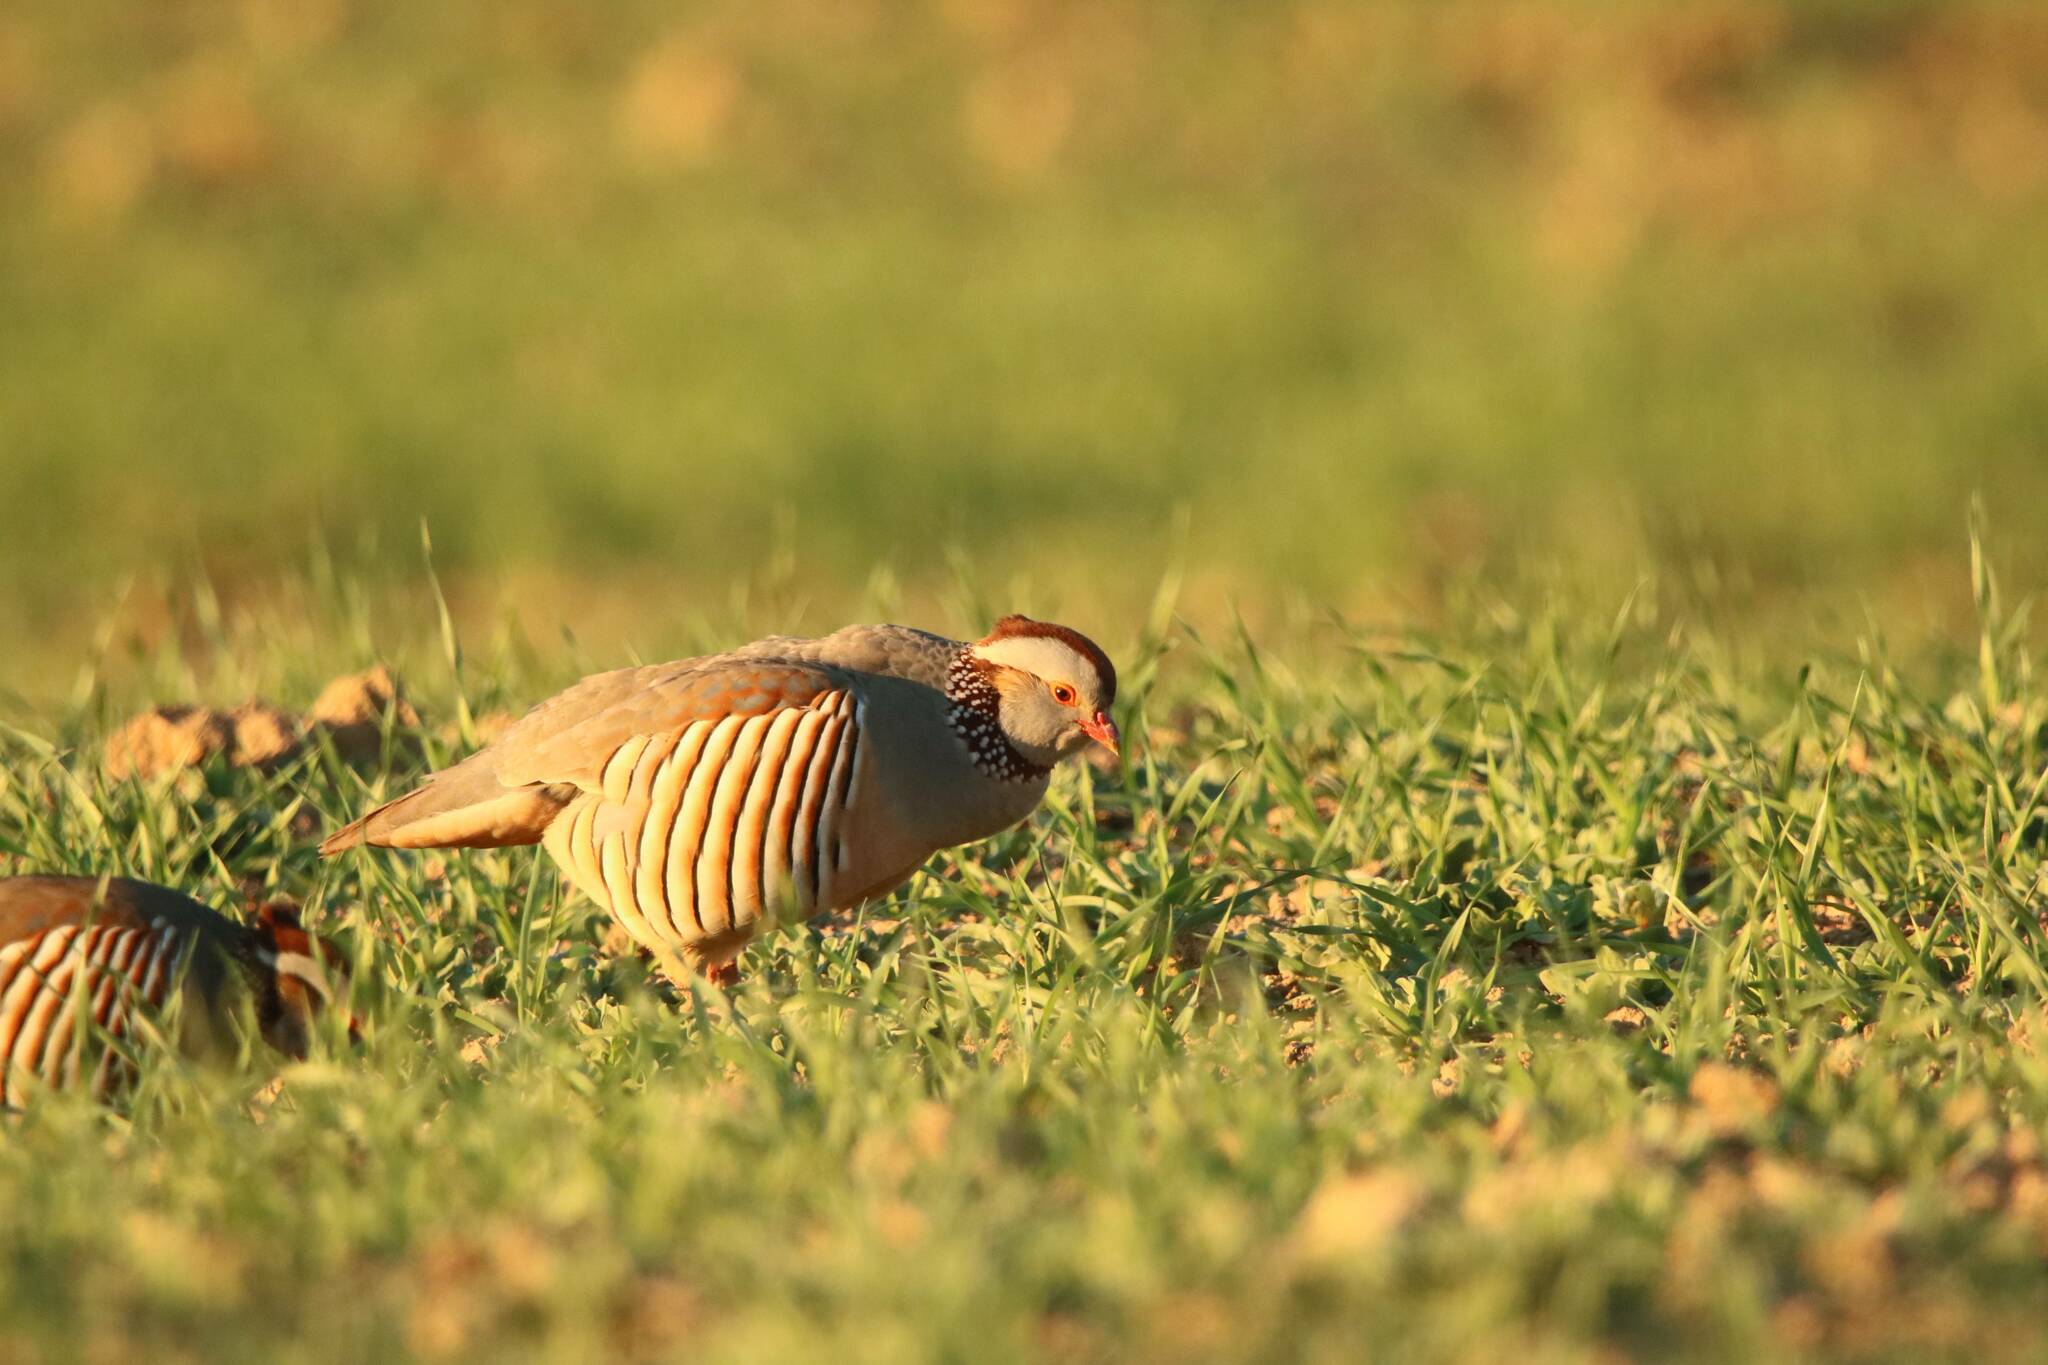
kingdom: Animalia
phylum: Chordata
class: Aves
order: Galliformes
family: Phasianidae
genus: Alectoris
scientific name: Alectoris barbara
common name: Barbary partridge
